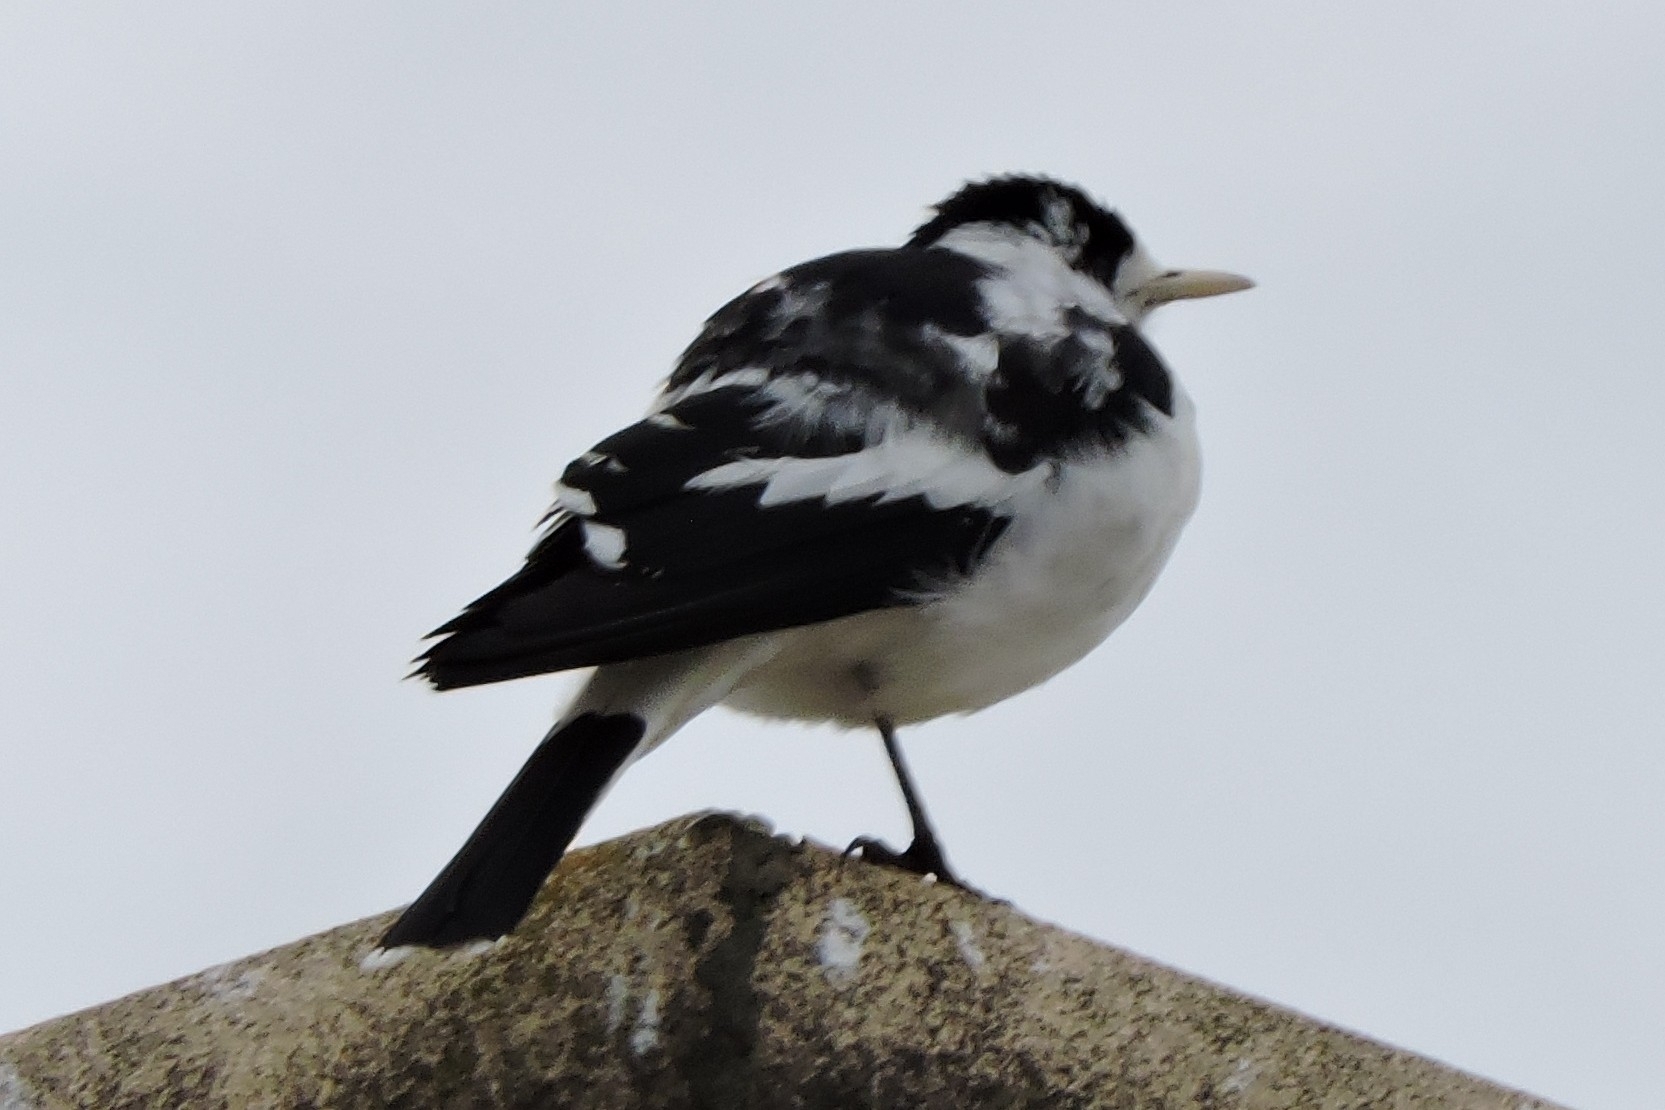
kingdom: Animalia
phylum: Chordata
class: Aves
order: Passeriformes
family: Monarchidae
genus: Grallina
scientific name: Grallina cyanoleuca
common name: Magpie-lark
